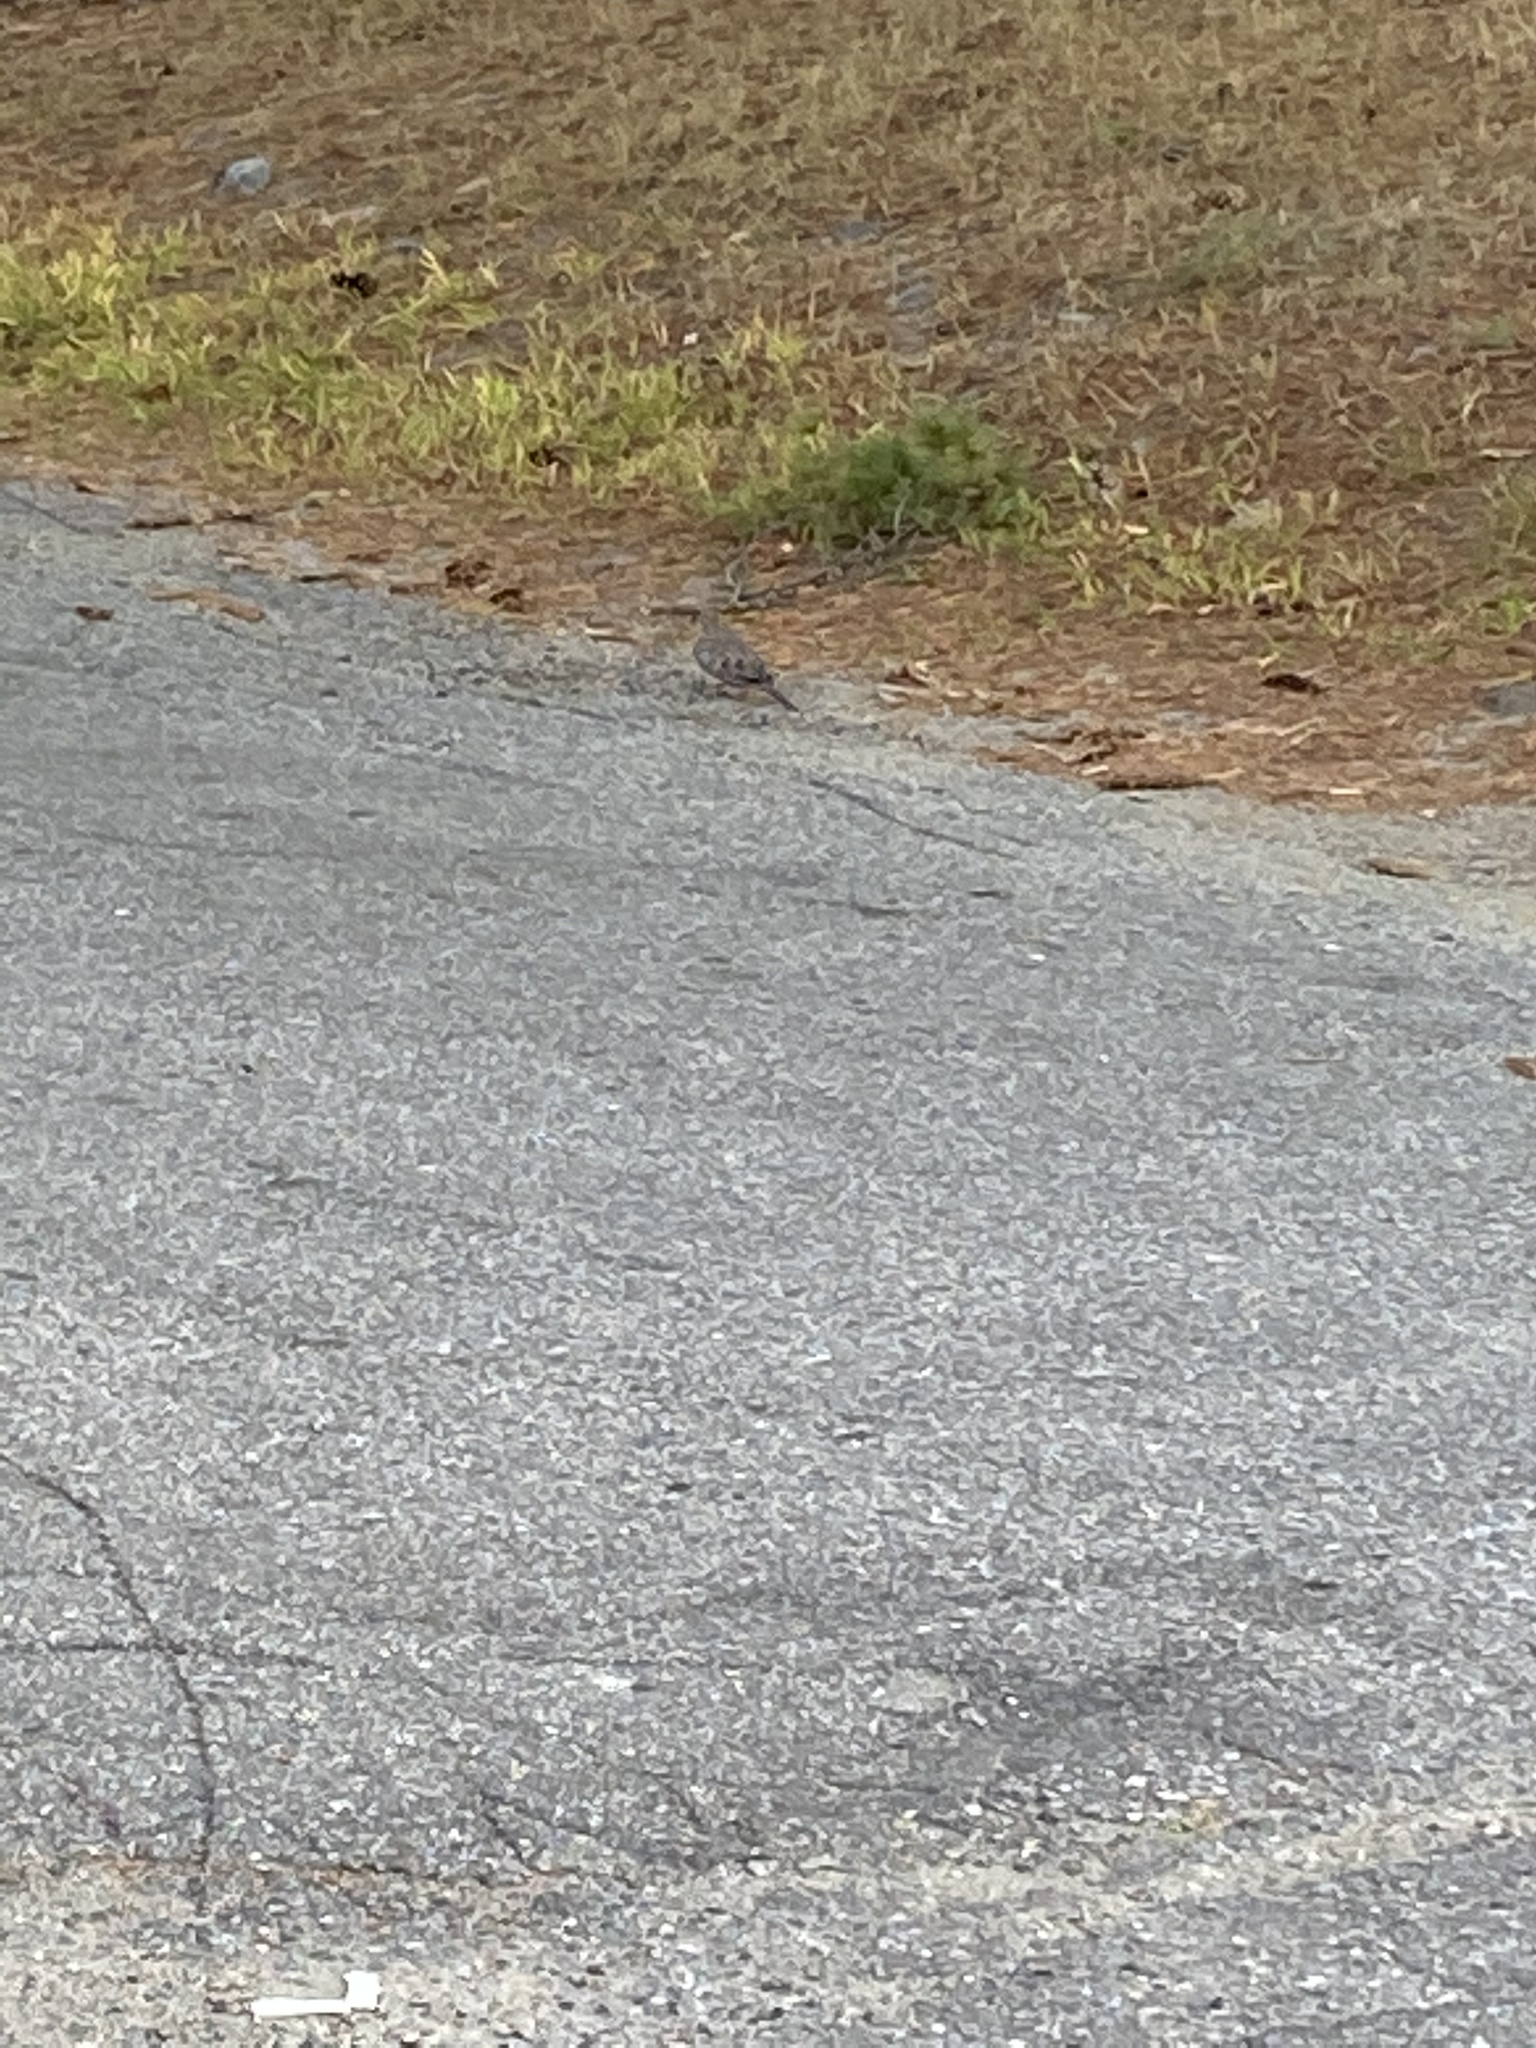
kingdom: Animalia
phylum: Chordata
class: Aves
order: Columbiformes
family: Columbidae
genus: Zenaida
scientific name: Zenaida macroura
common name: Mourning dove
